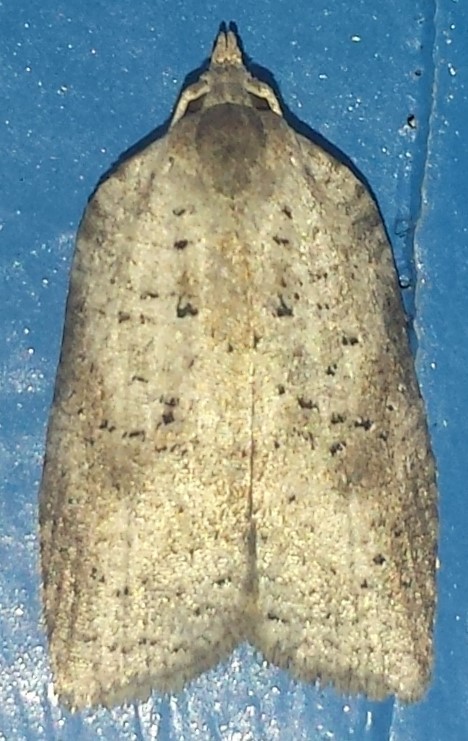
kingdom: Animalia
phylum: Arthropoda
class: Insecta
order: Lepidoptera
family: Tortricidae
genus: Amorbia
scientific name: Amorbia humerosana
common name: White-lined leafroller moth
